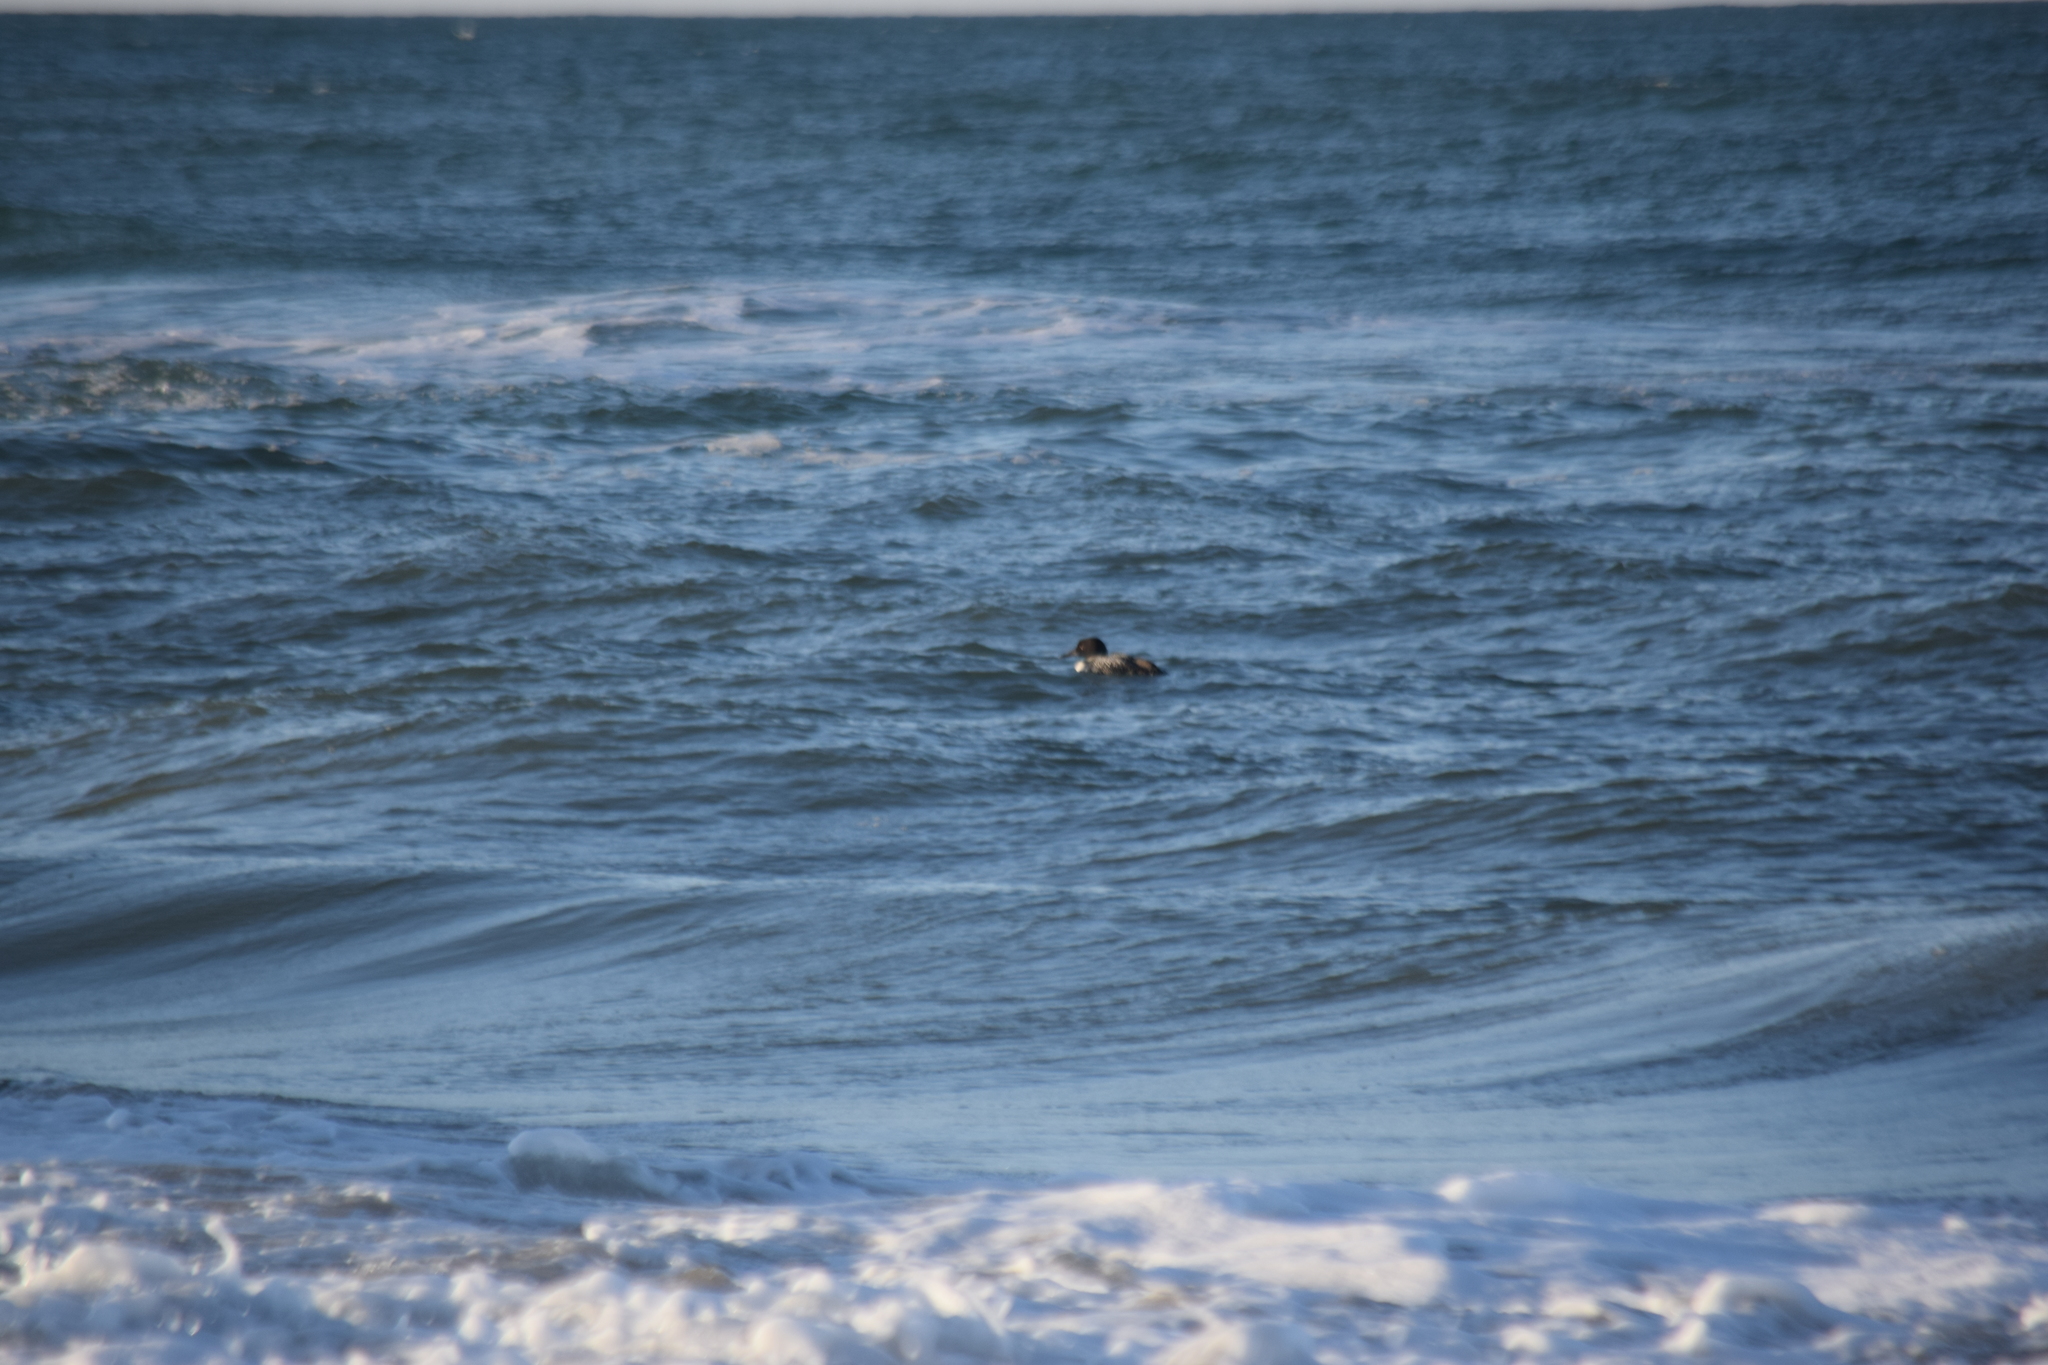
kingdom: Animalia
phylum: Chordata
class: Aves
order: Gaviiformes
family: Gaviidae
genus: Gavia
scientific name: Gavia immer
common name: Common loon
